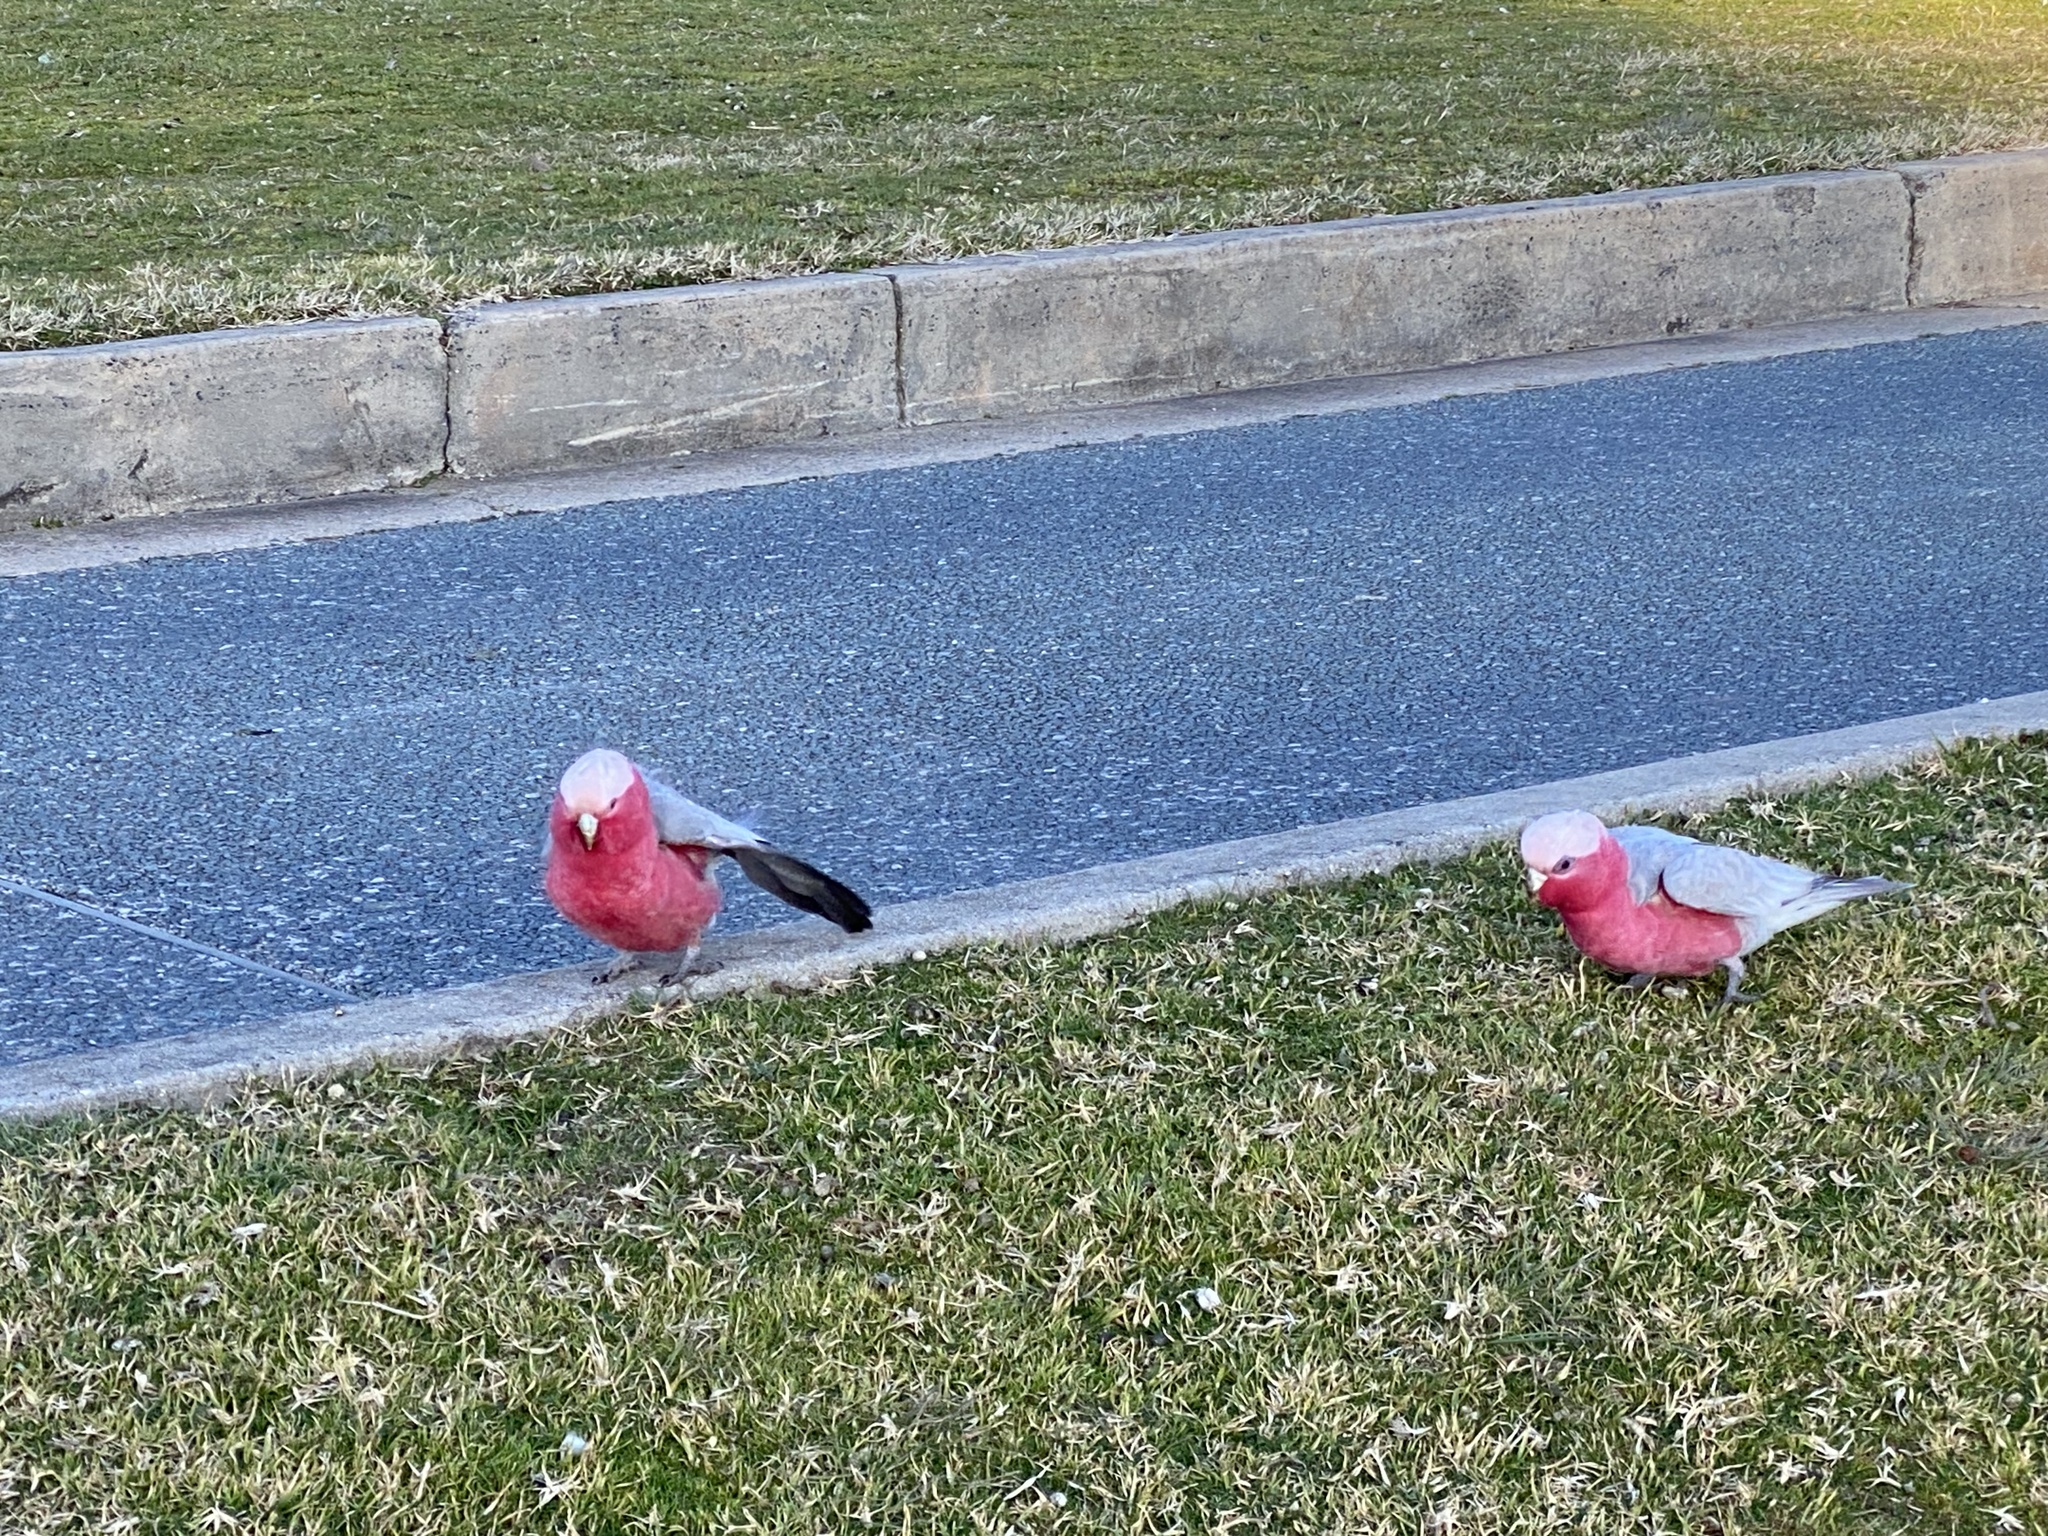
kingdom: Animalia
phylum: Chordata
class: Aves
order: Psittaciformes
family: Psittacidae
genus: Eolophus
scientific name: Eolophus roseicapilla
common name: Galah
